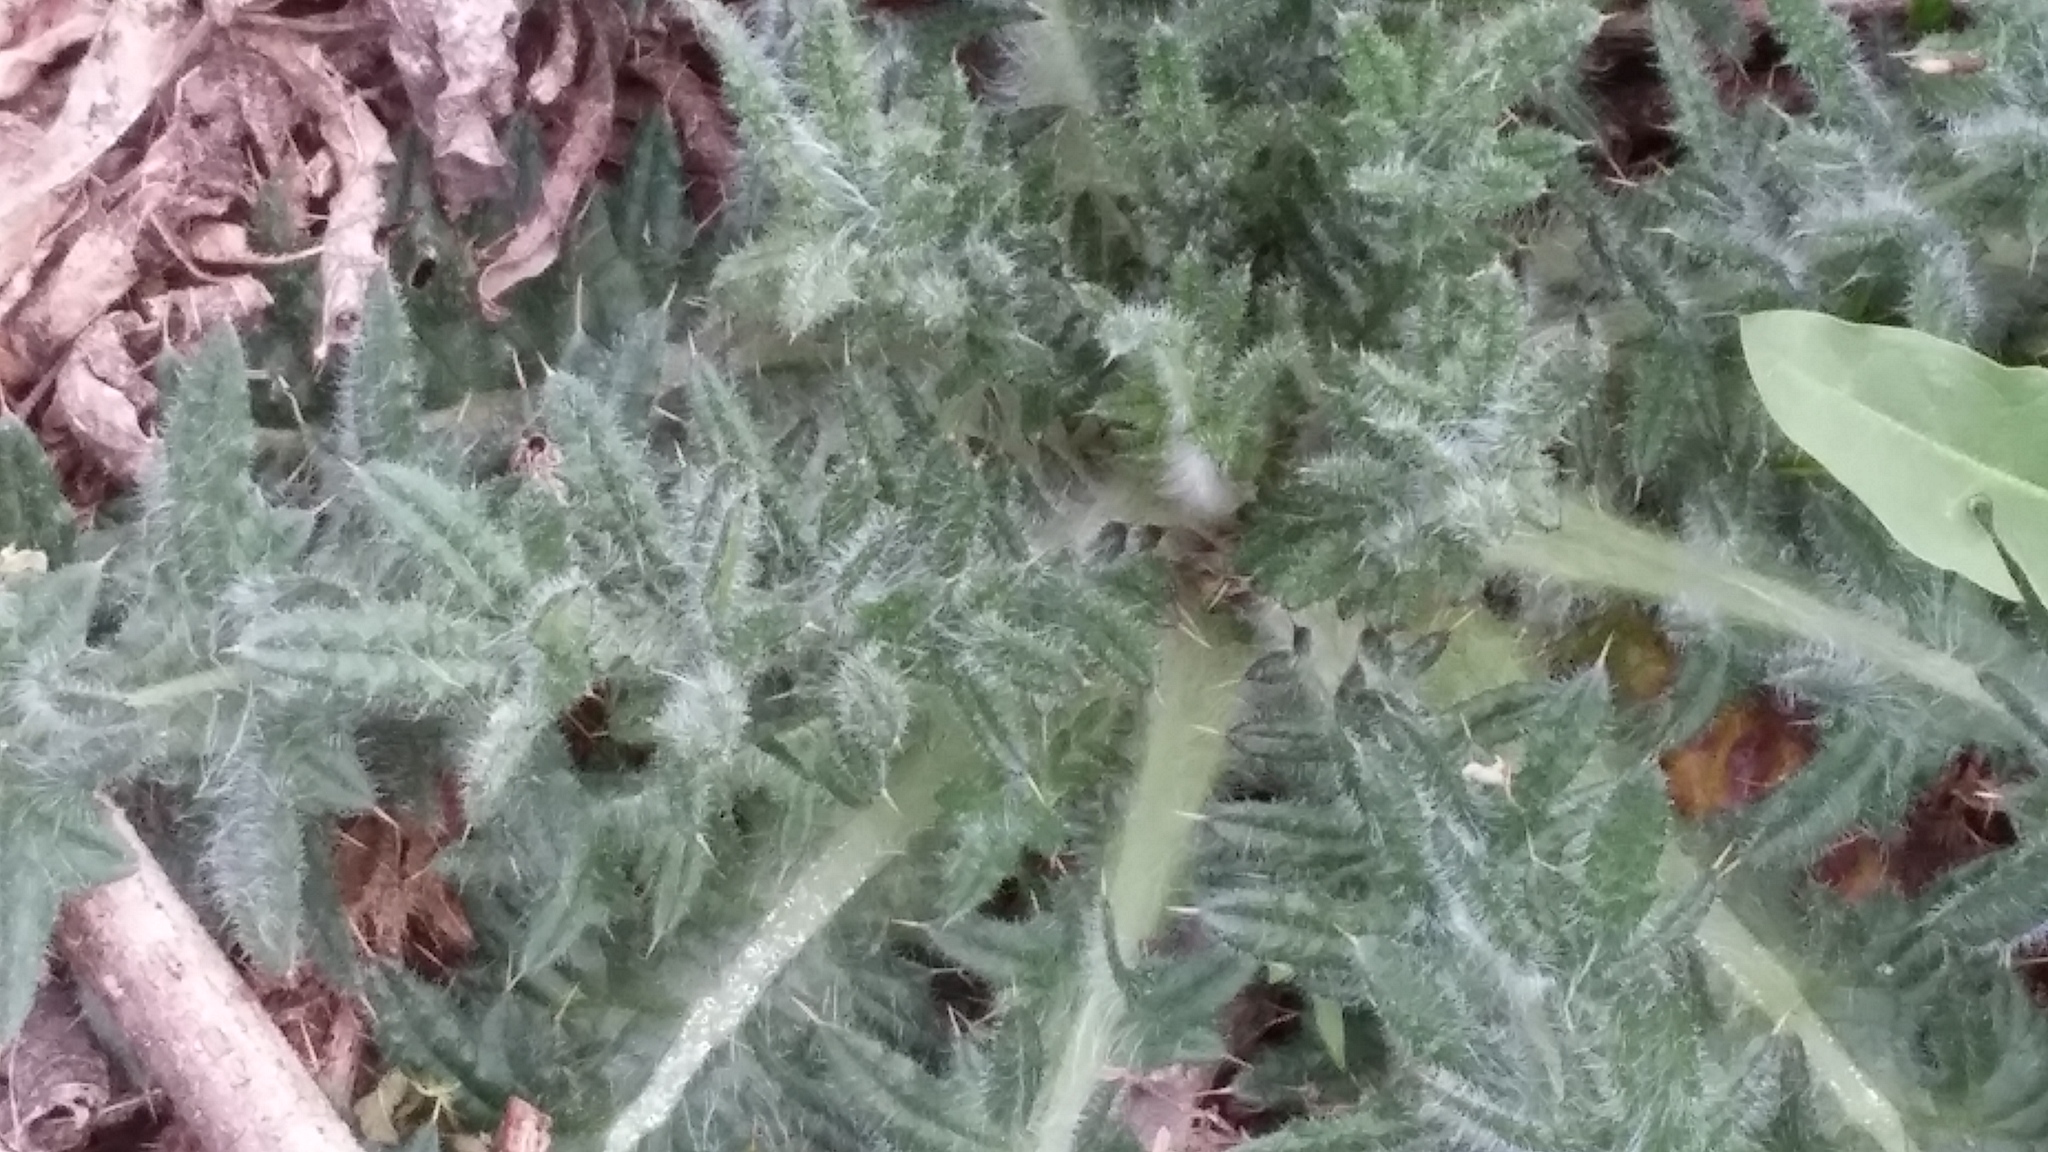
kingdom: Plantae
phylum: Tracheophyta
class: Magnoliopsida
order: Asterales
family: Asteraceae
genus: Cirsium
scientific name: Cirsium vulgare
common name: Bull thistle
